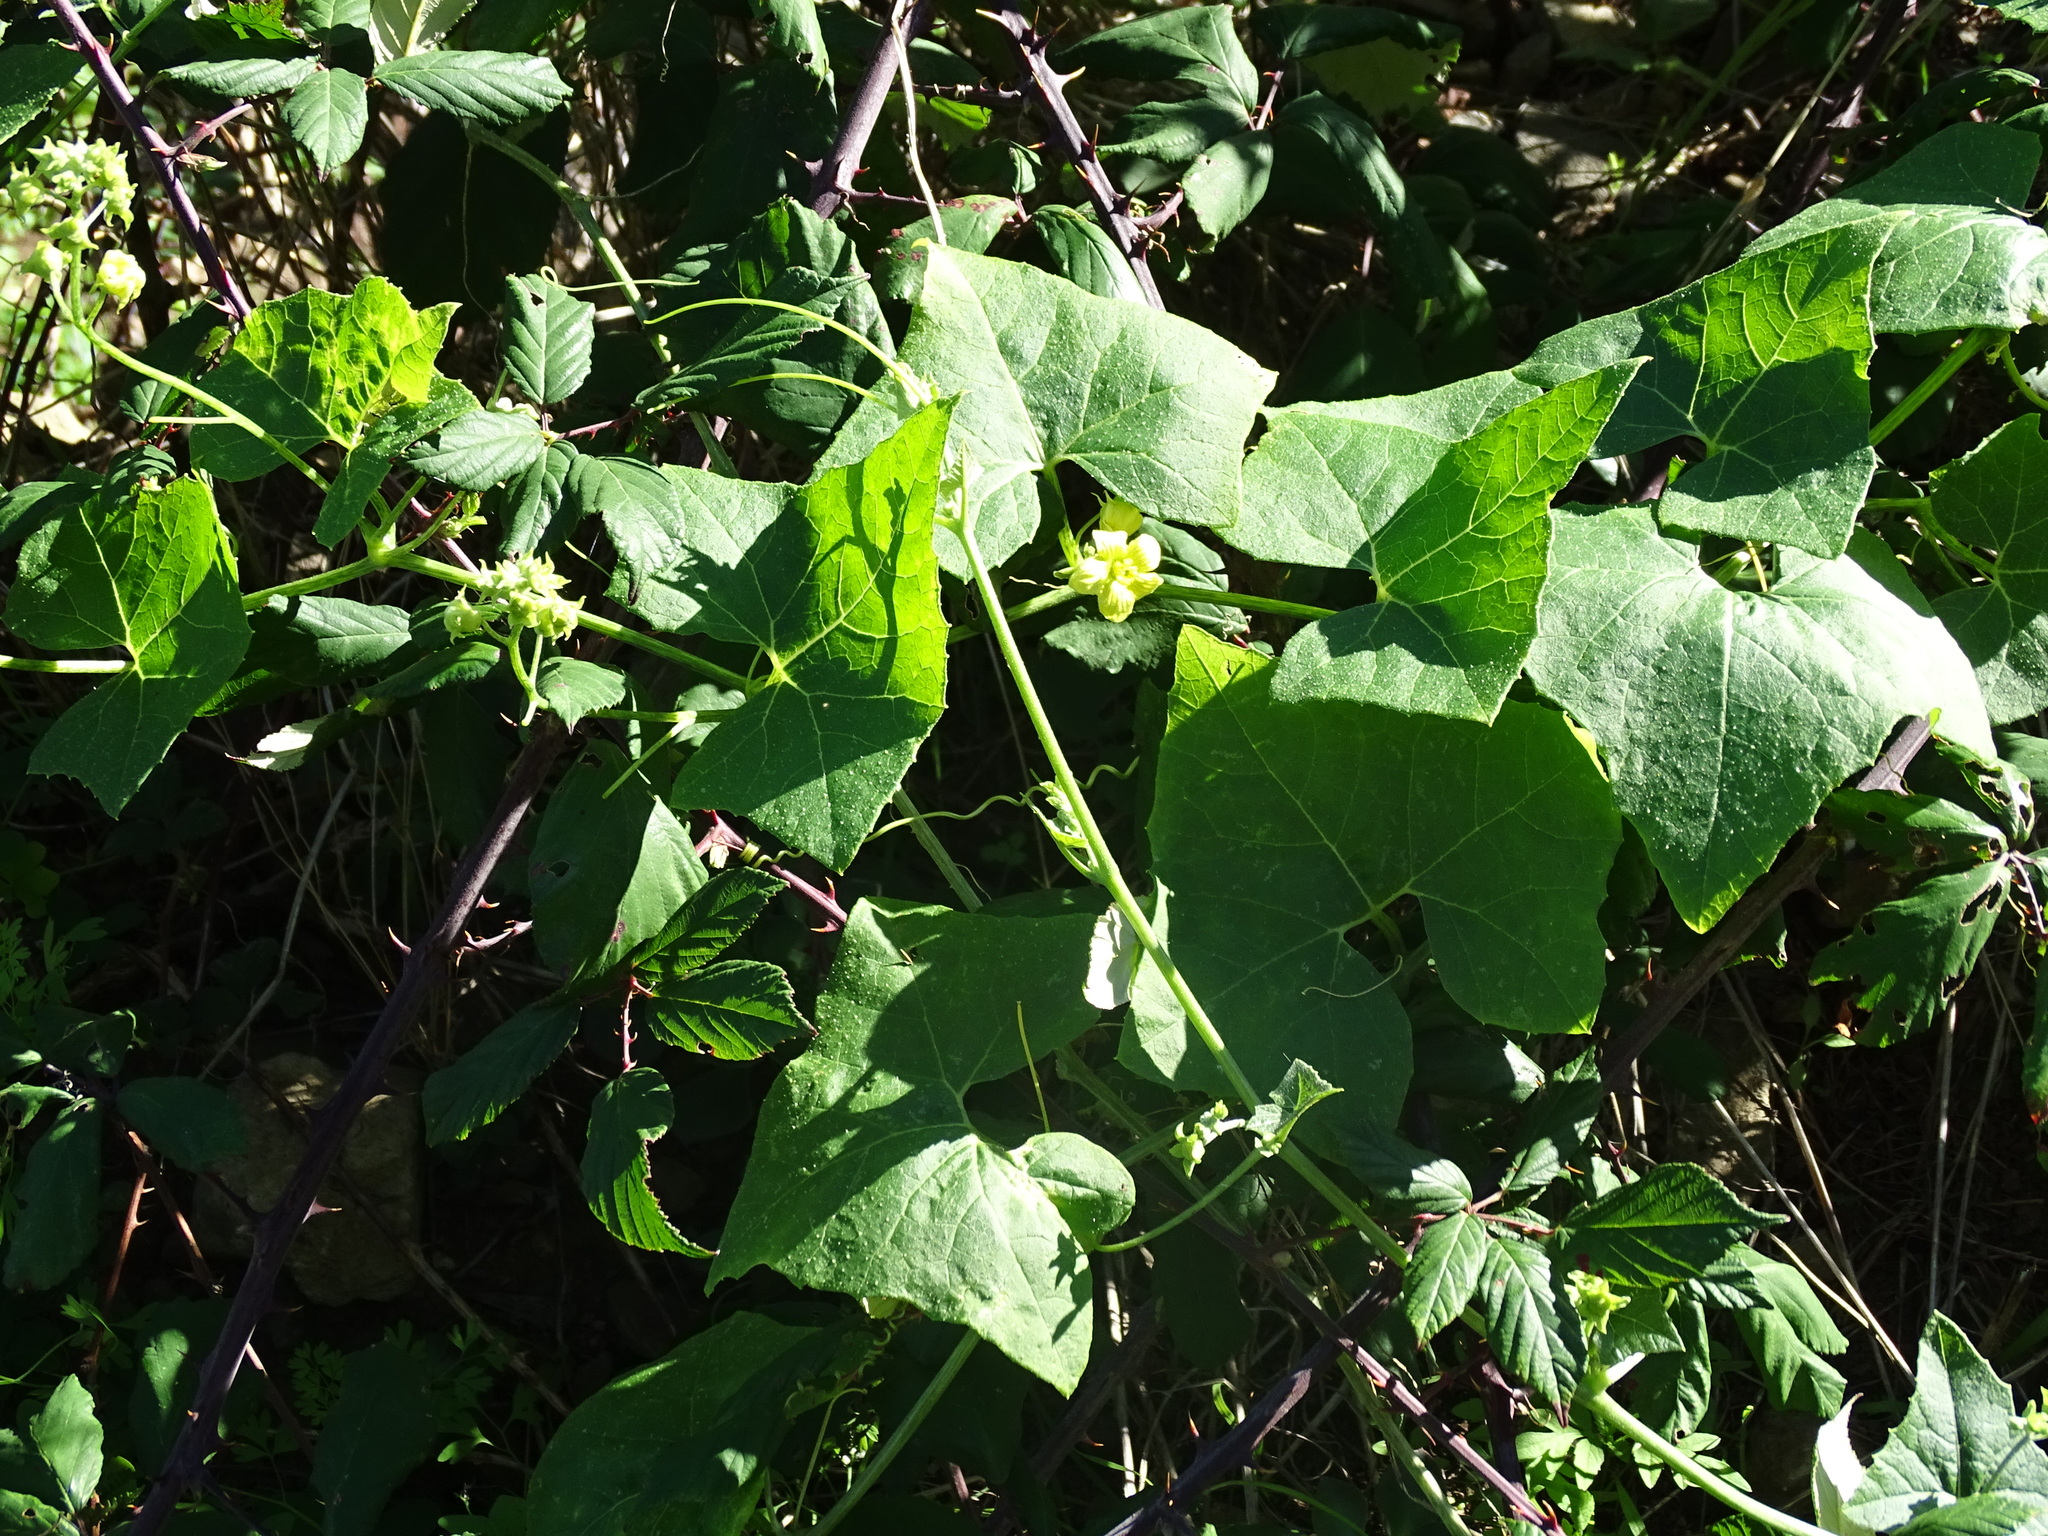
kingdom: Plantae
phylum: Tracheophyta
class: Magnoliopsida
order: Cucurbitales
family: Cucurbitaceae
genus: Bryonia
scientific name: Bryonia verrucosa
